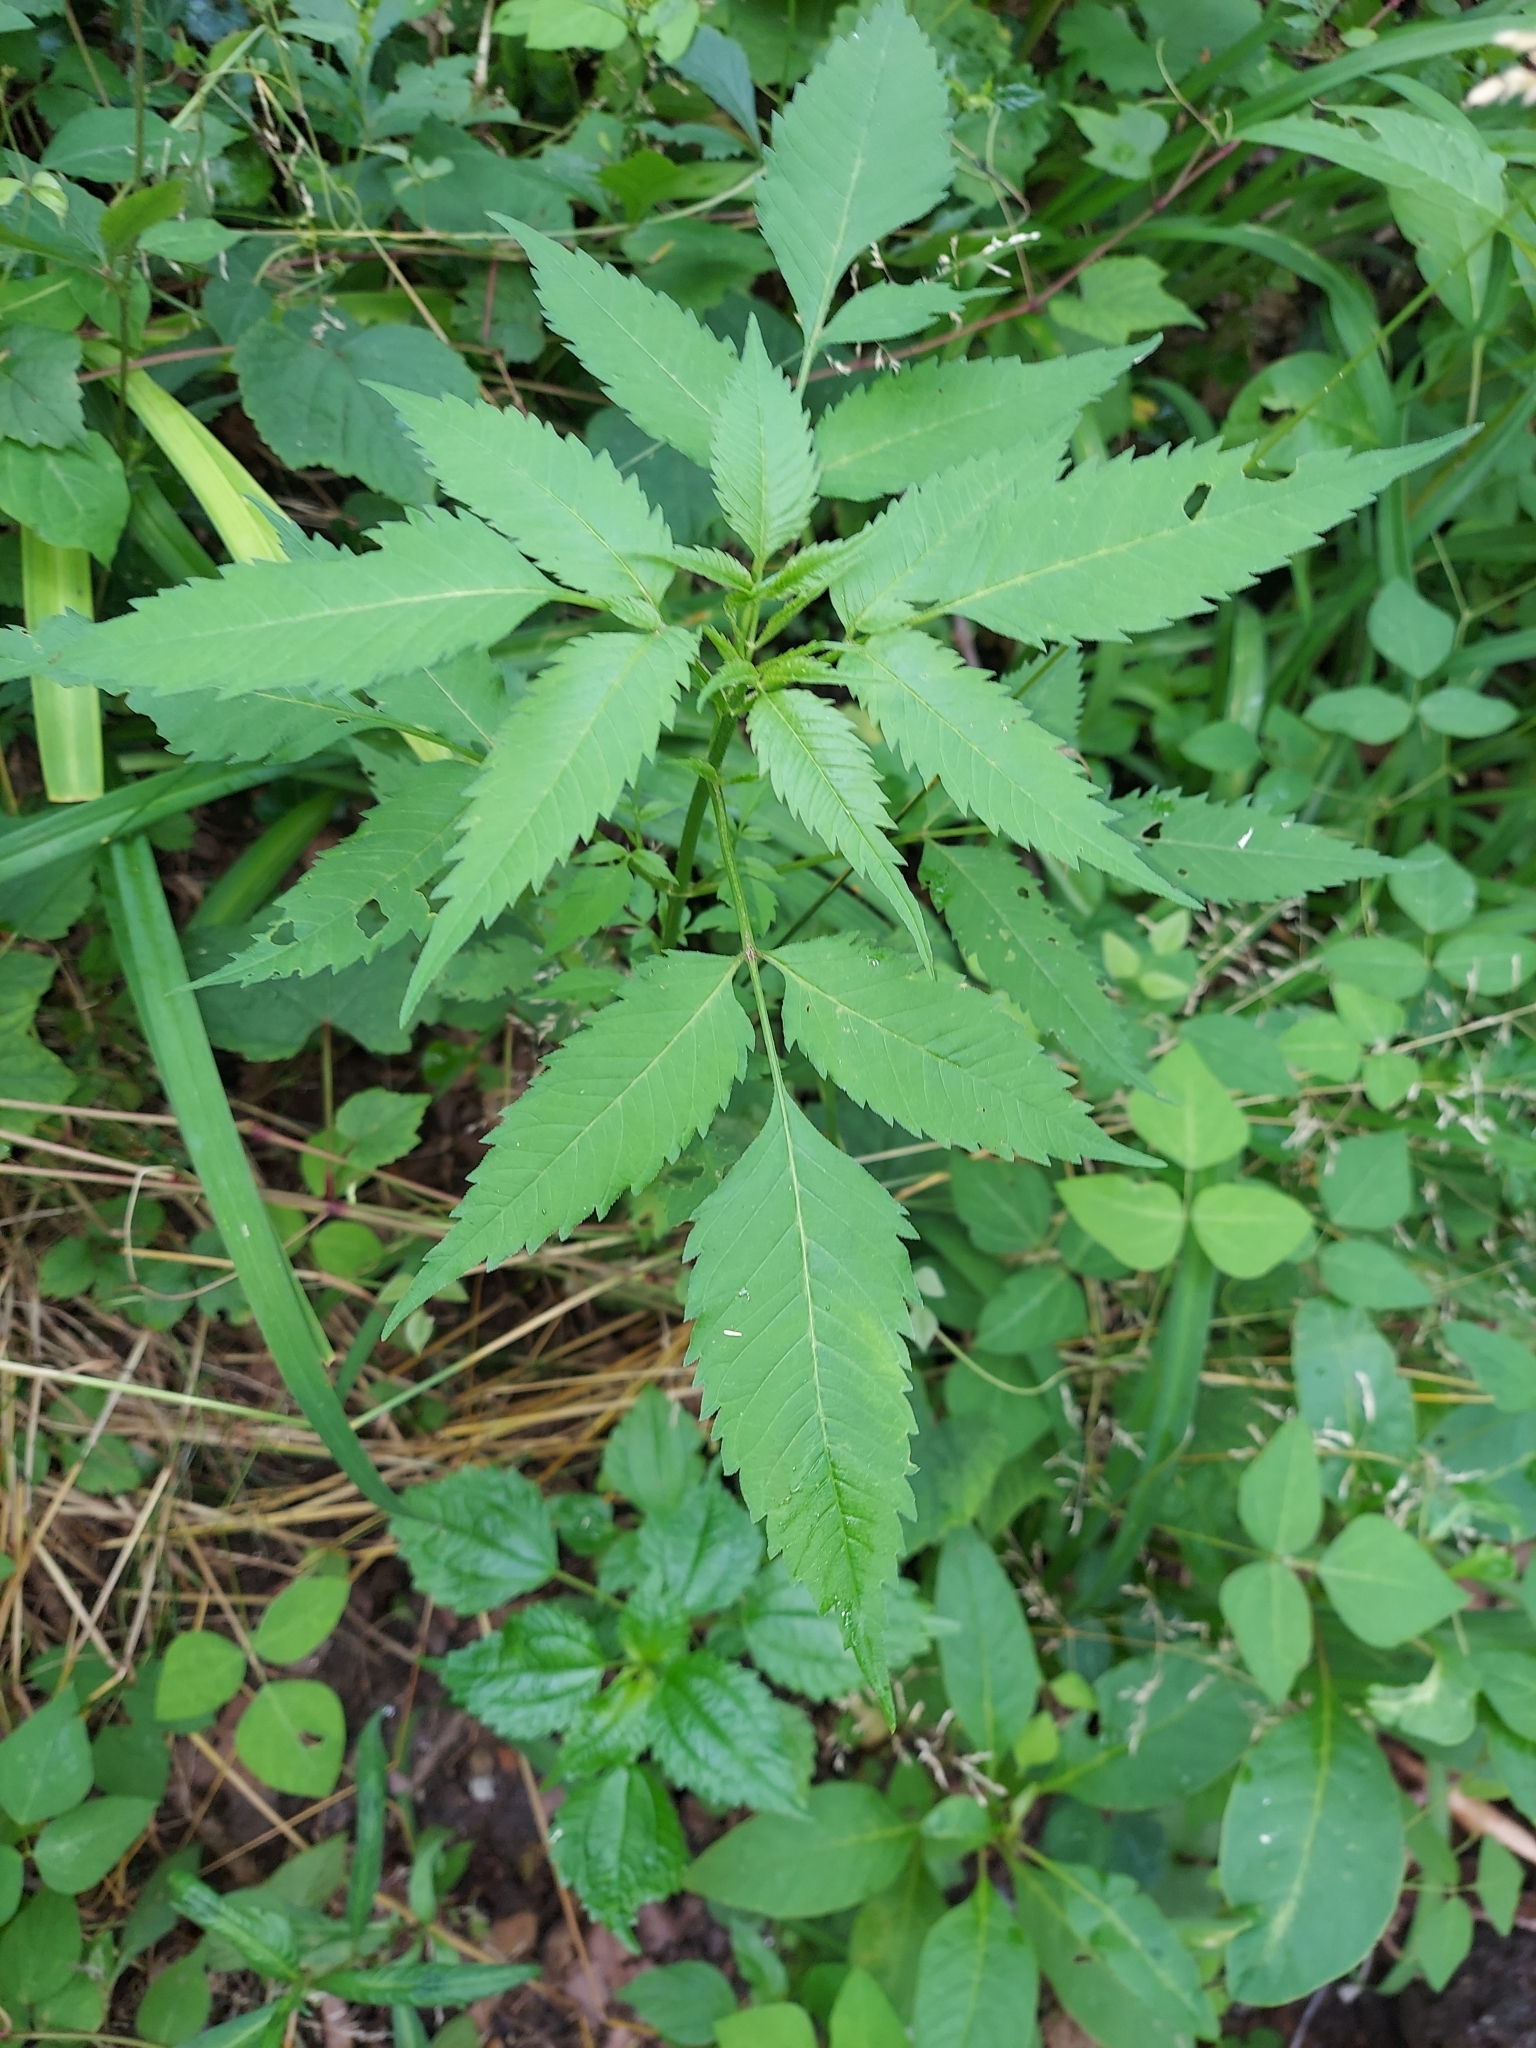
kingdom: Plantae
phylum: Tracheophyta
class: Magnoliopsida
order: Asterales
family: Asteraceae
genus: Bidens
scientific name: Bidens frondosa
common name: Beggarticks
